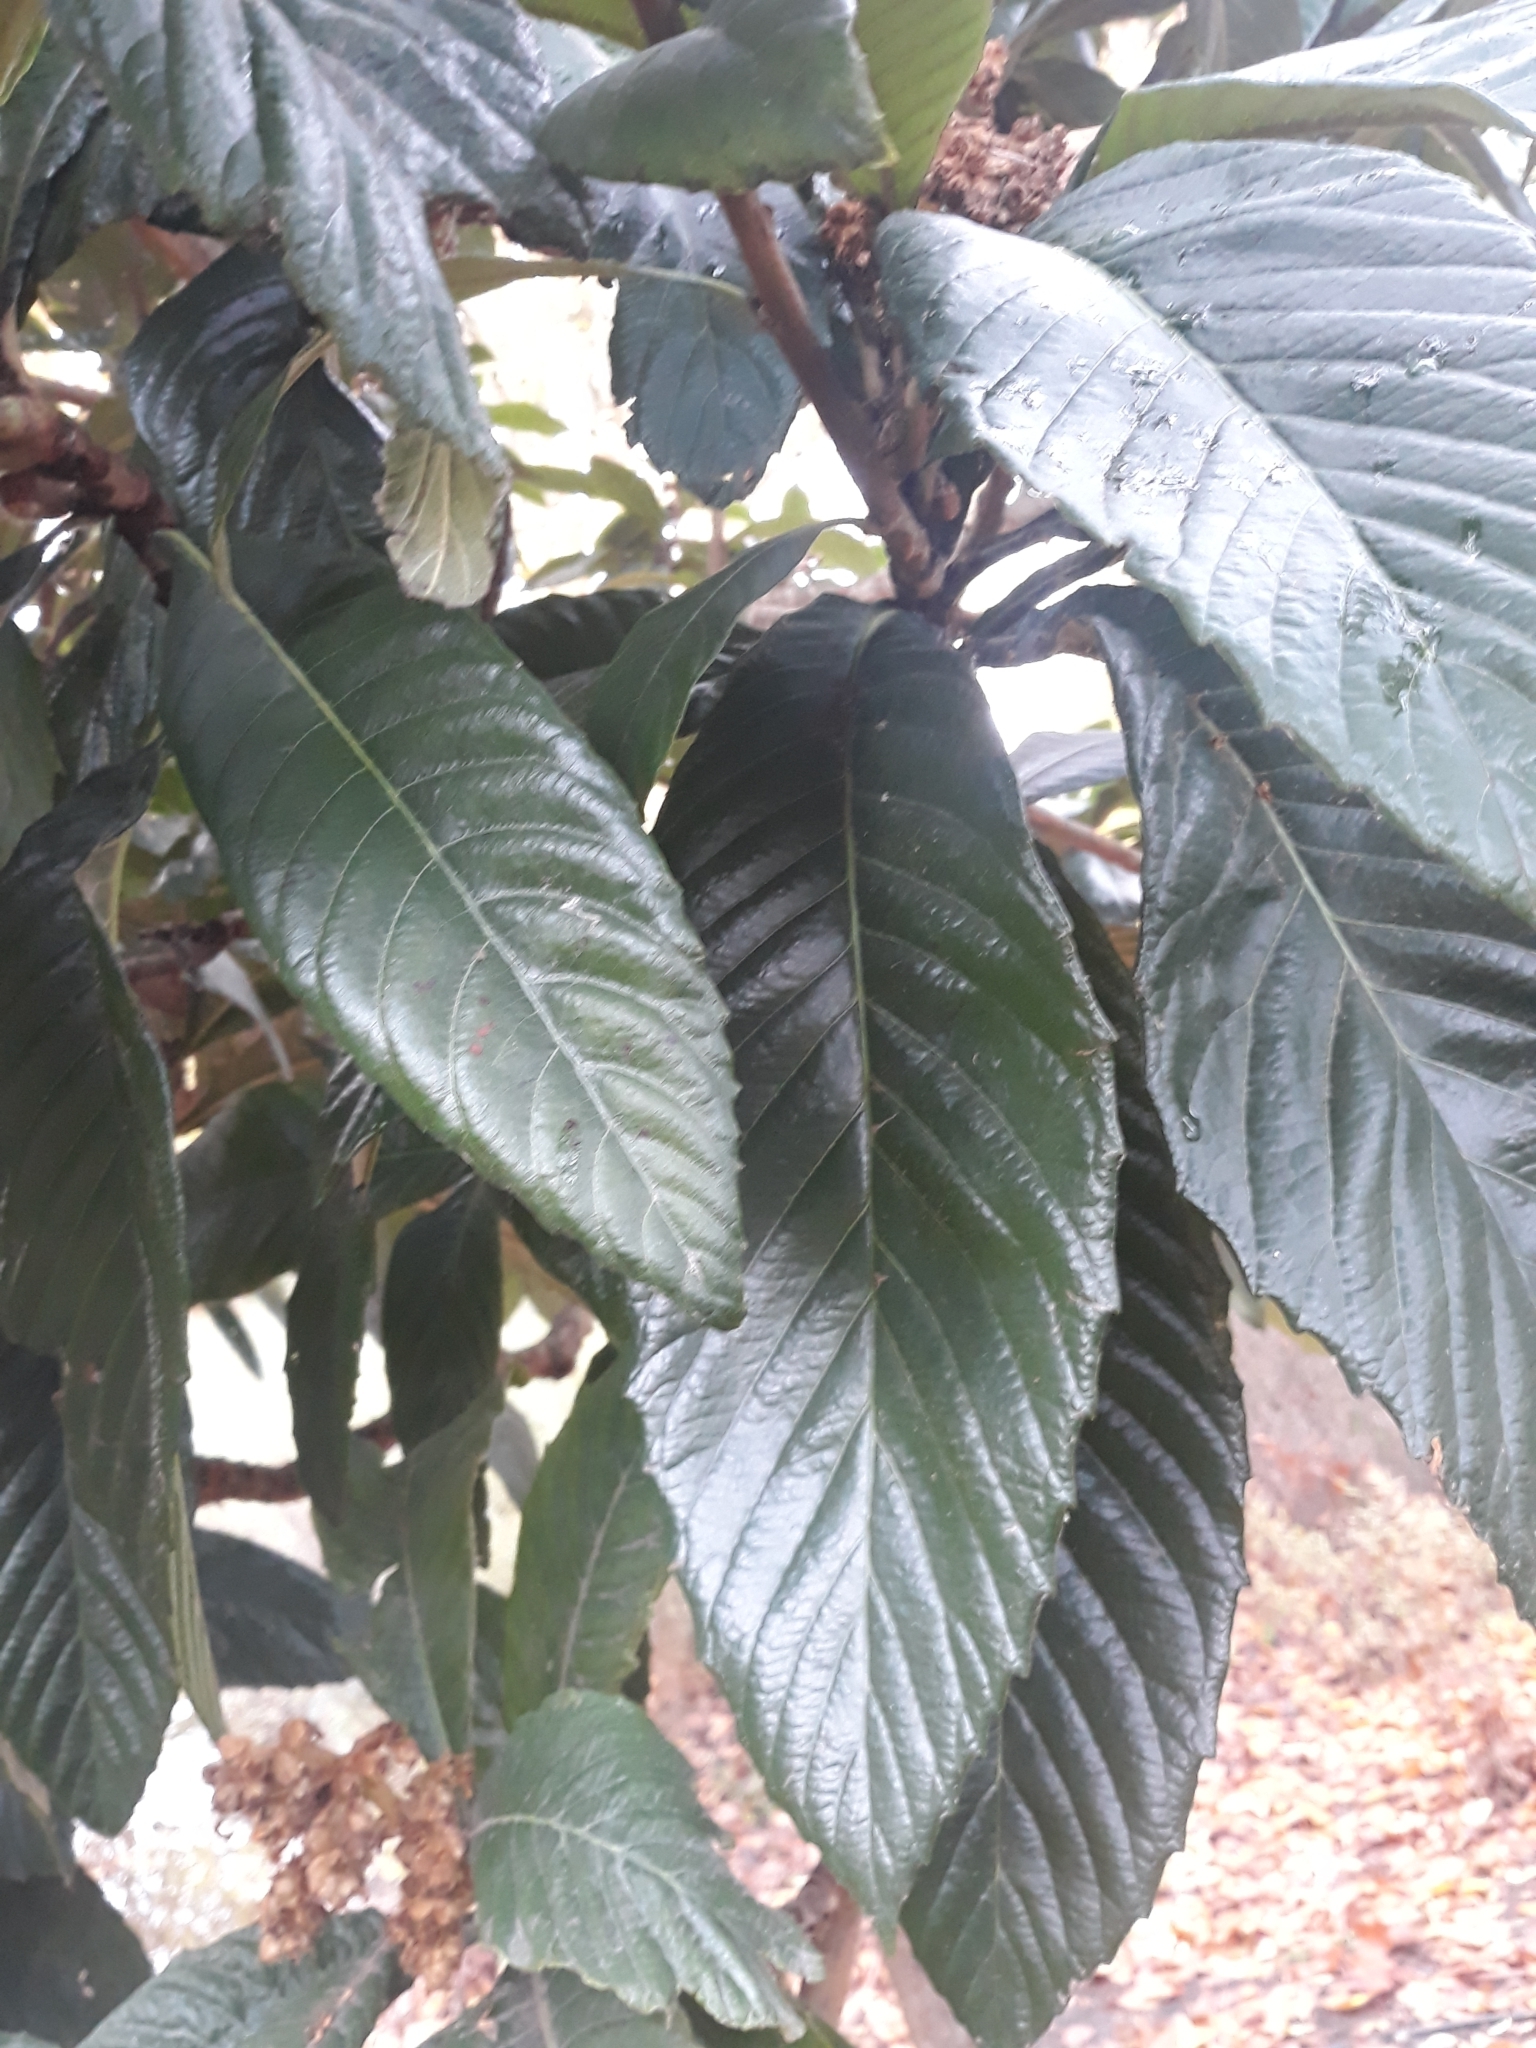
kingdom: Plantae
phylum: Tracheophyta
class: Magnoliopsida
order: Rosales
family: Rosaceae
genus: Rhaphiolepis
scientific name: Rhaphiolepis bibas
